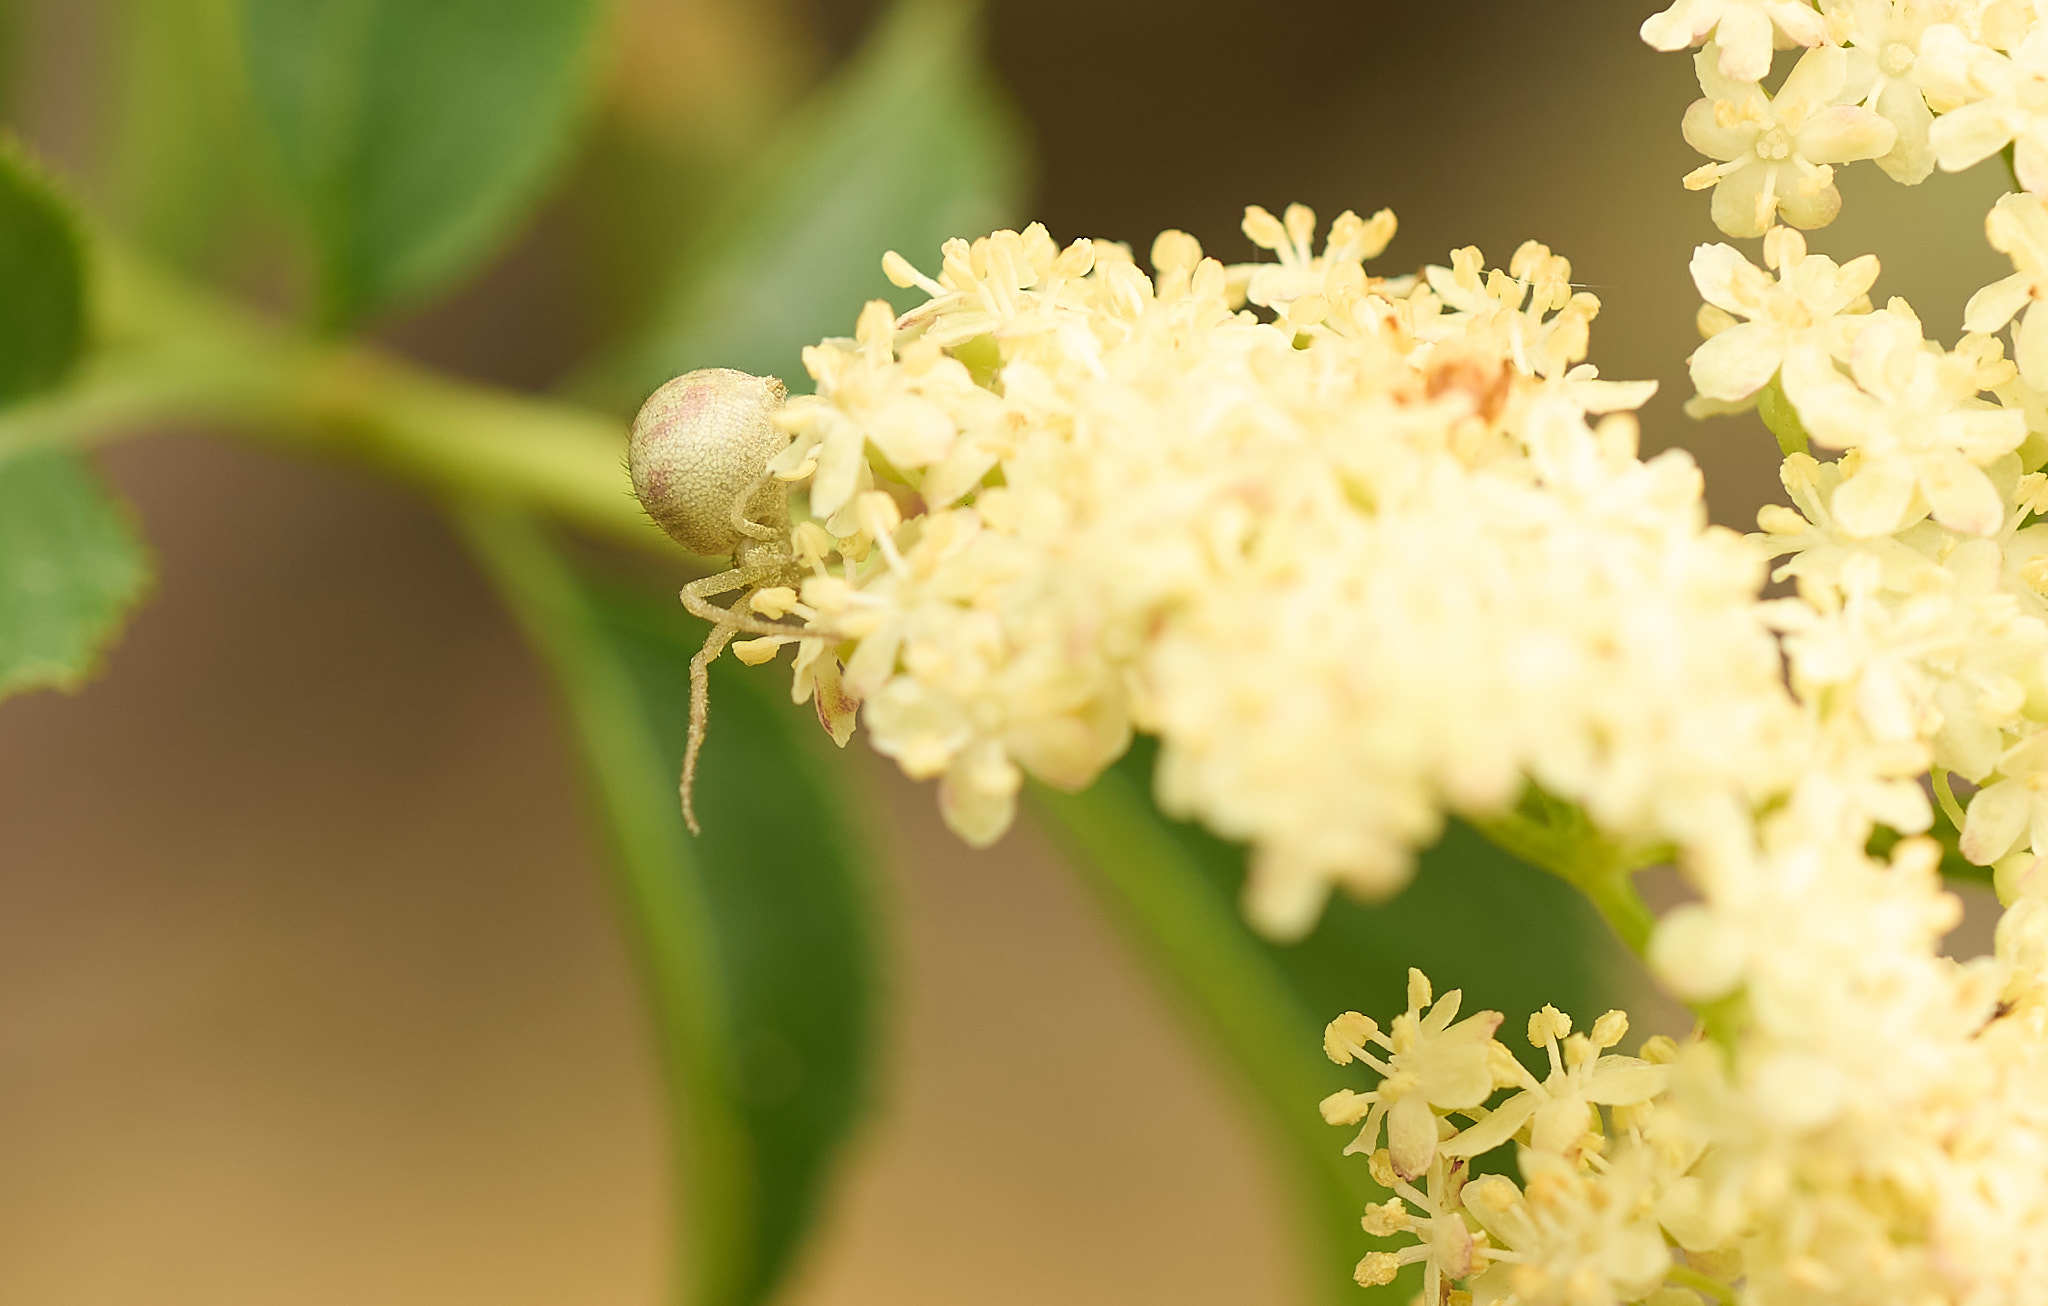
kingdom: Animalia
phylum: Arthropoda
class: Arachnida
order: Araneae
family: Thomisidae
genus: Misumena
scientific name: Misumena vatia
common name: Goldenrod crab spider
